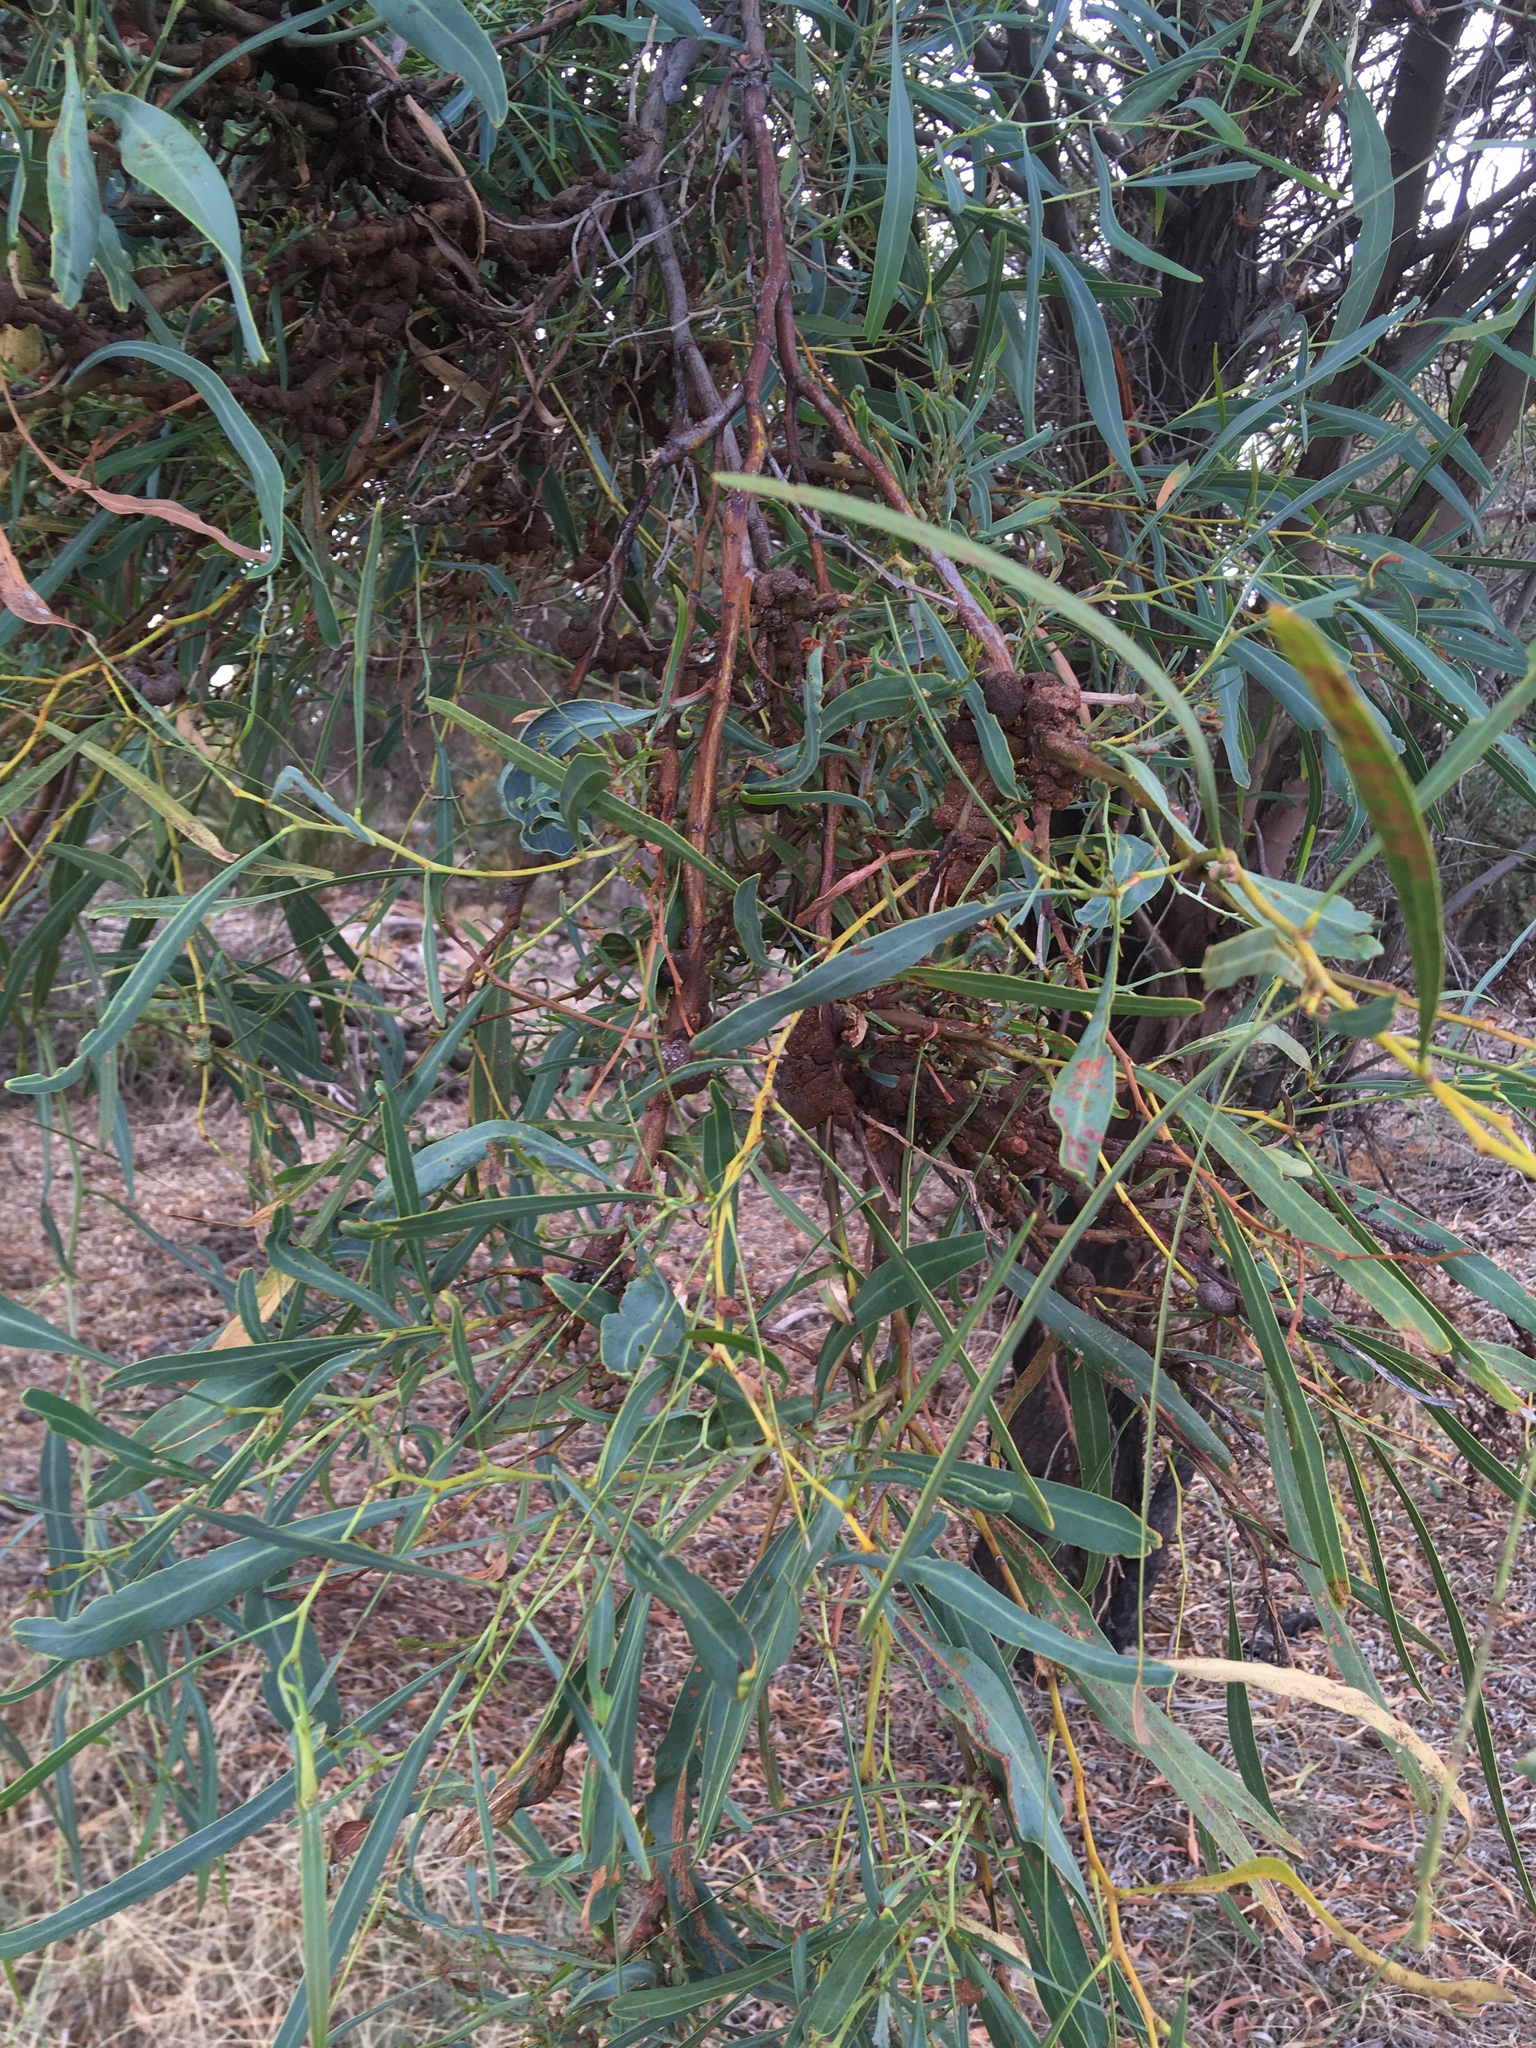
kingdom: Plantae
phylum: Tracheophyta
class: Magnoliopsida
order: Fabales
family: Fabaceae
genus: Acacia
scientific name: Acacia saligna
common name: Orange wattle
